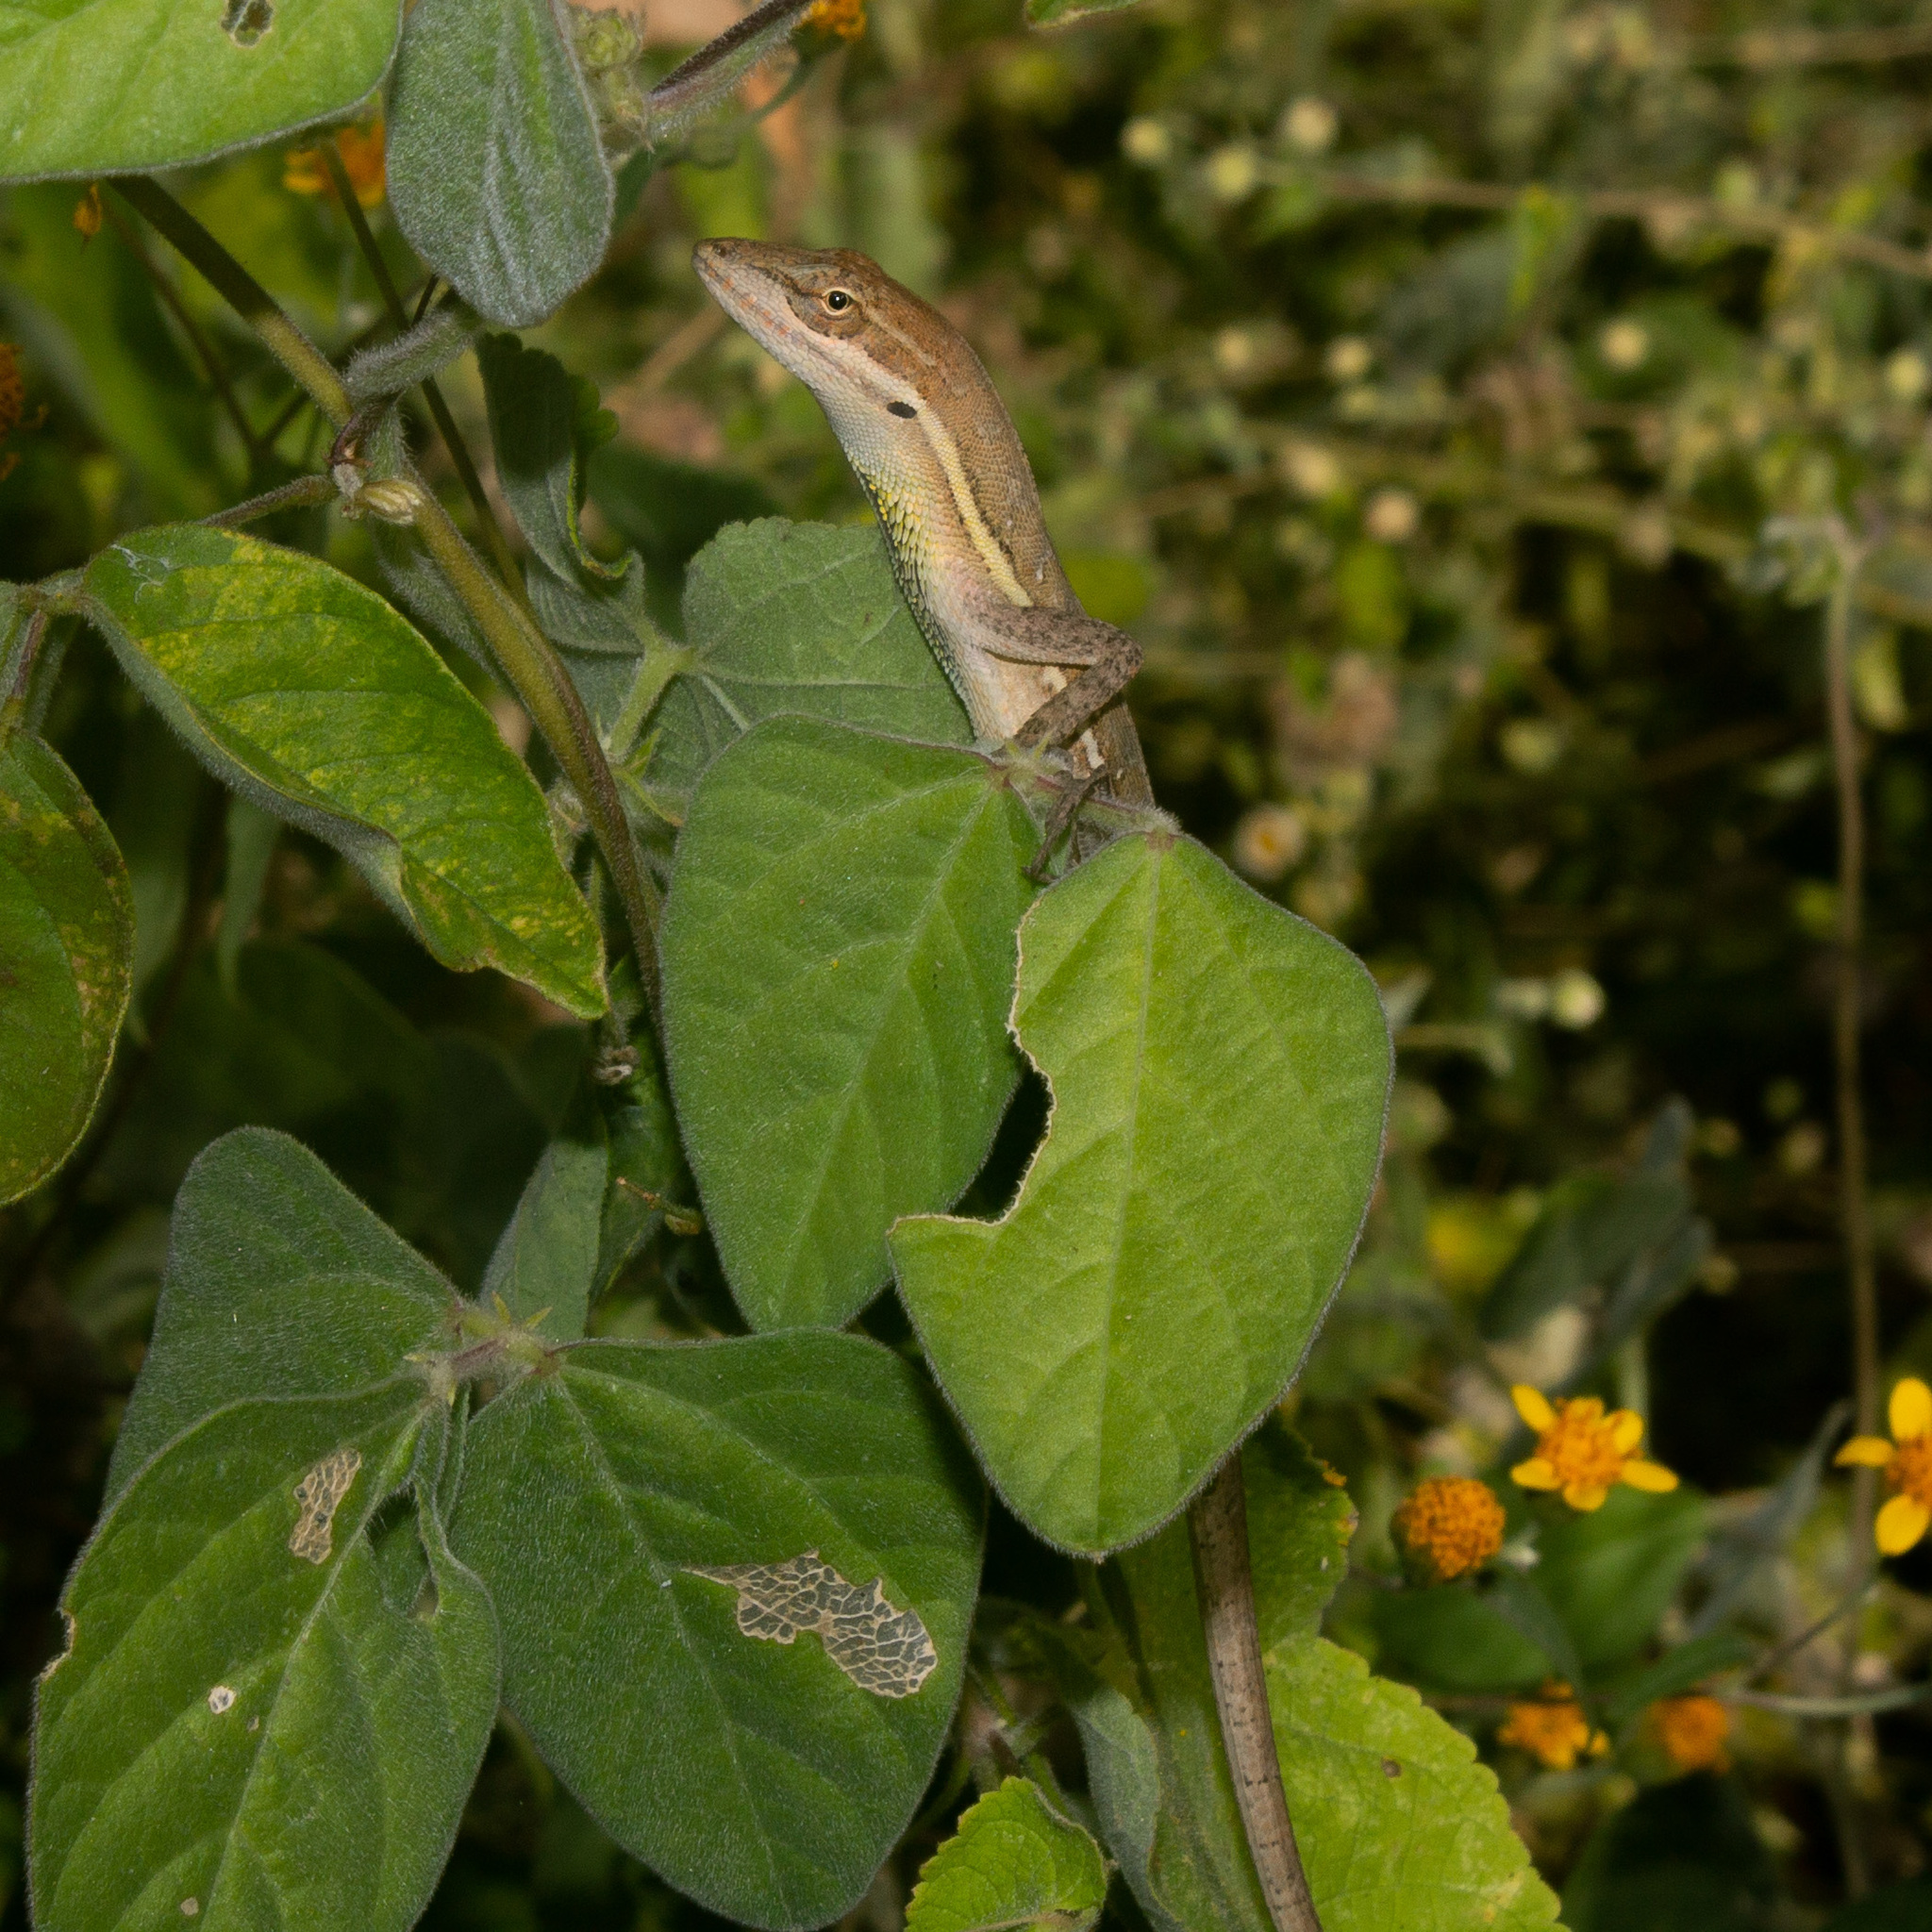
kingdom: Animalia
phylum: Chordata
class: Squamata
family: Dactyloidae
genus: Anolis
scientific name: Anolis auratus
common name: Grass anole
